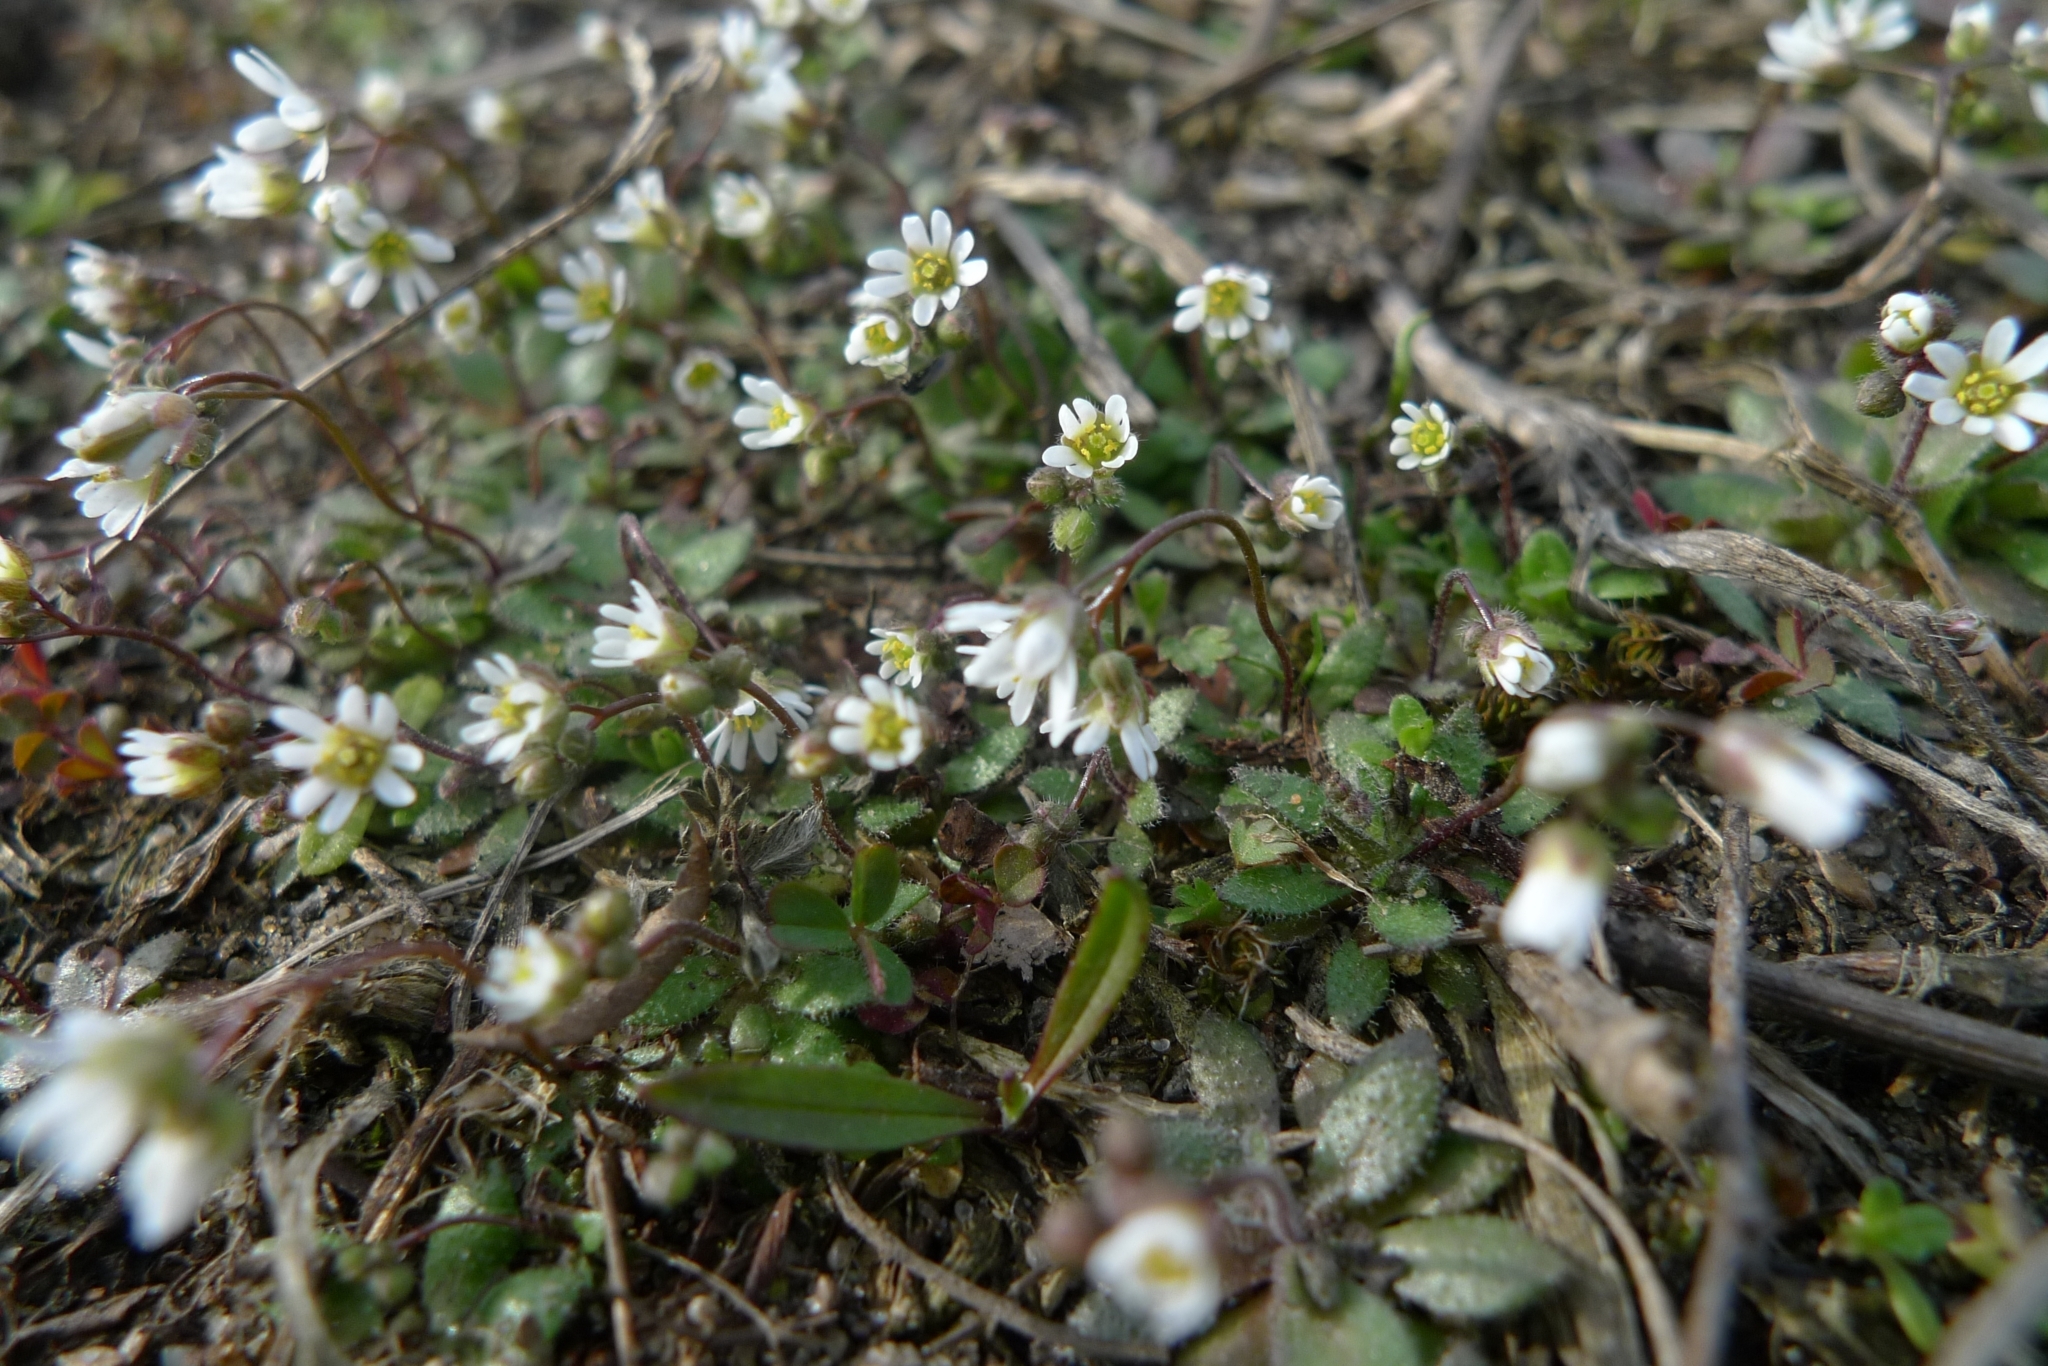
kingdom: Plantae
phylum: Tracheophyta
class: Magnoliopsida
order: Brassicales
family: Brassicaceae
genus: Draba
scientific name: Draba verna
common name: Spring draba
